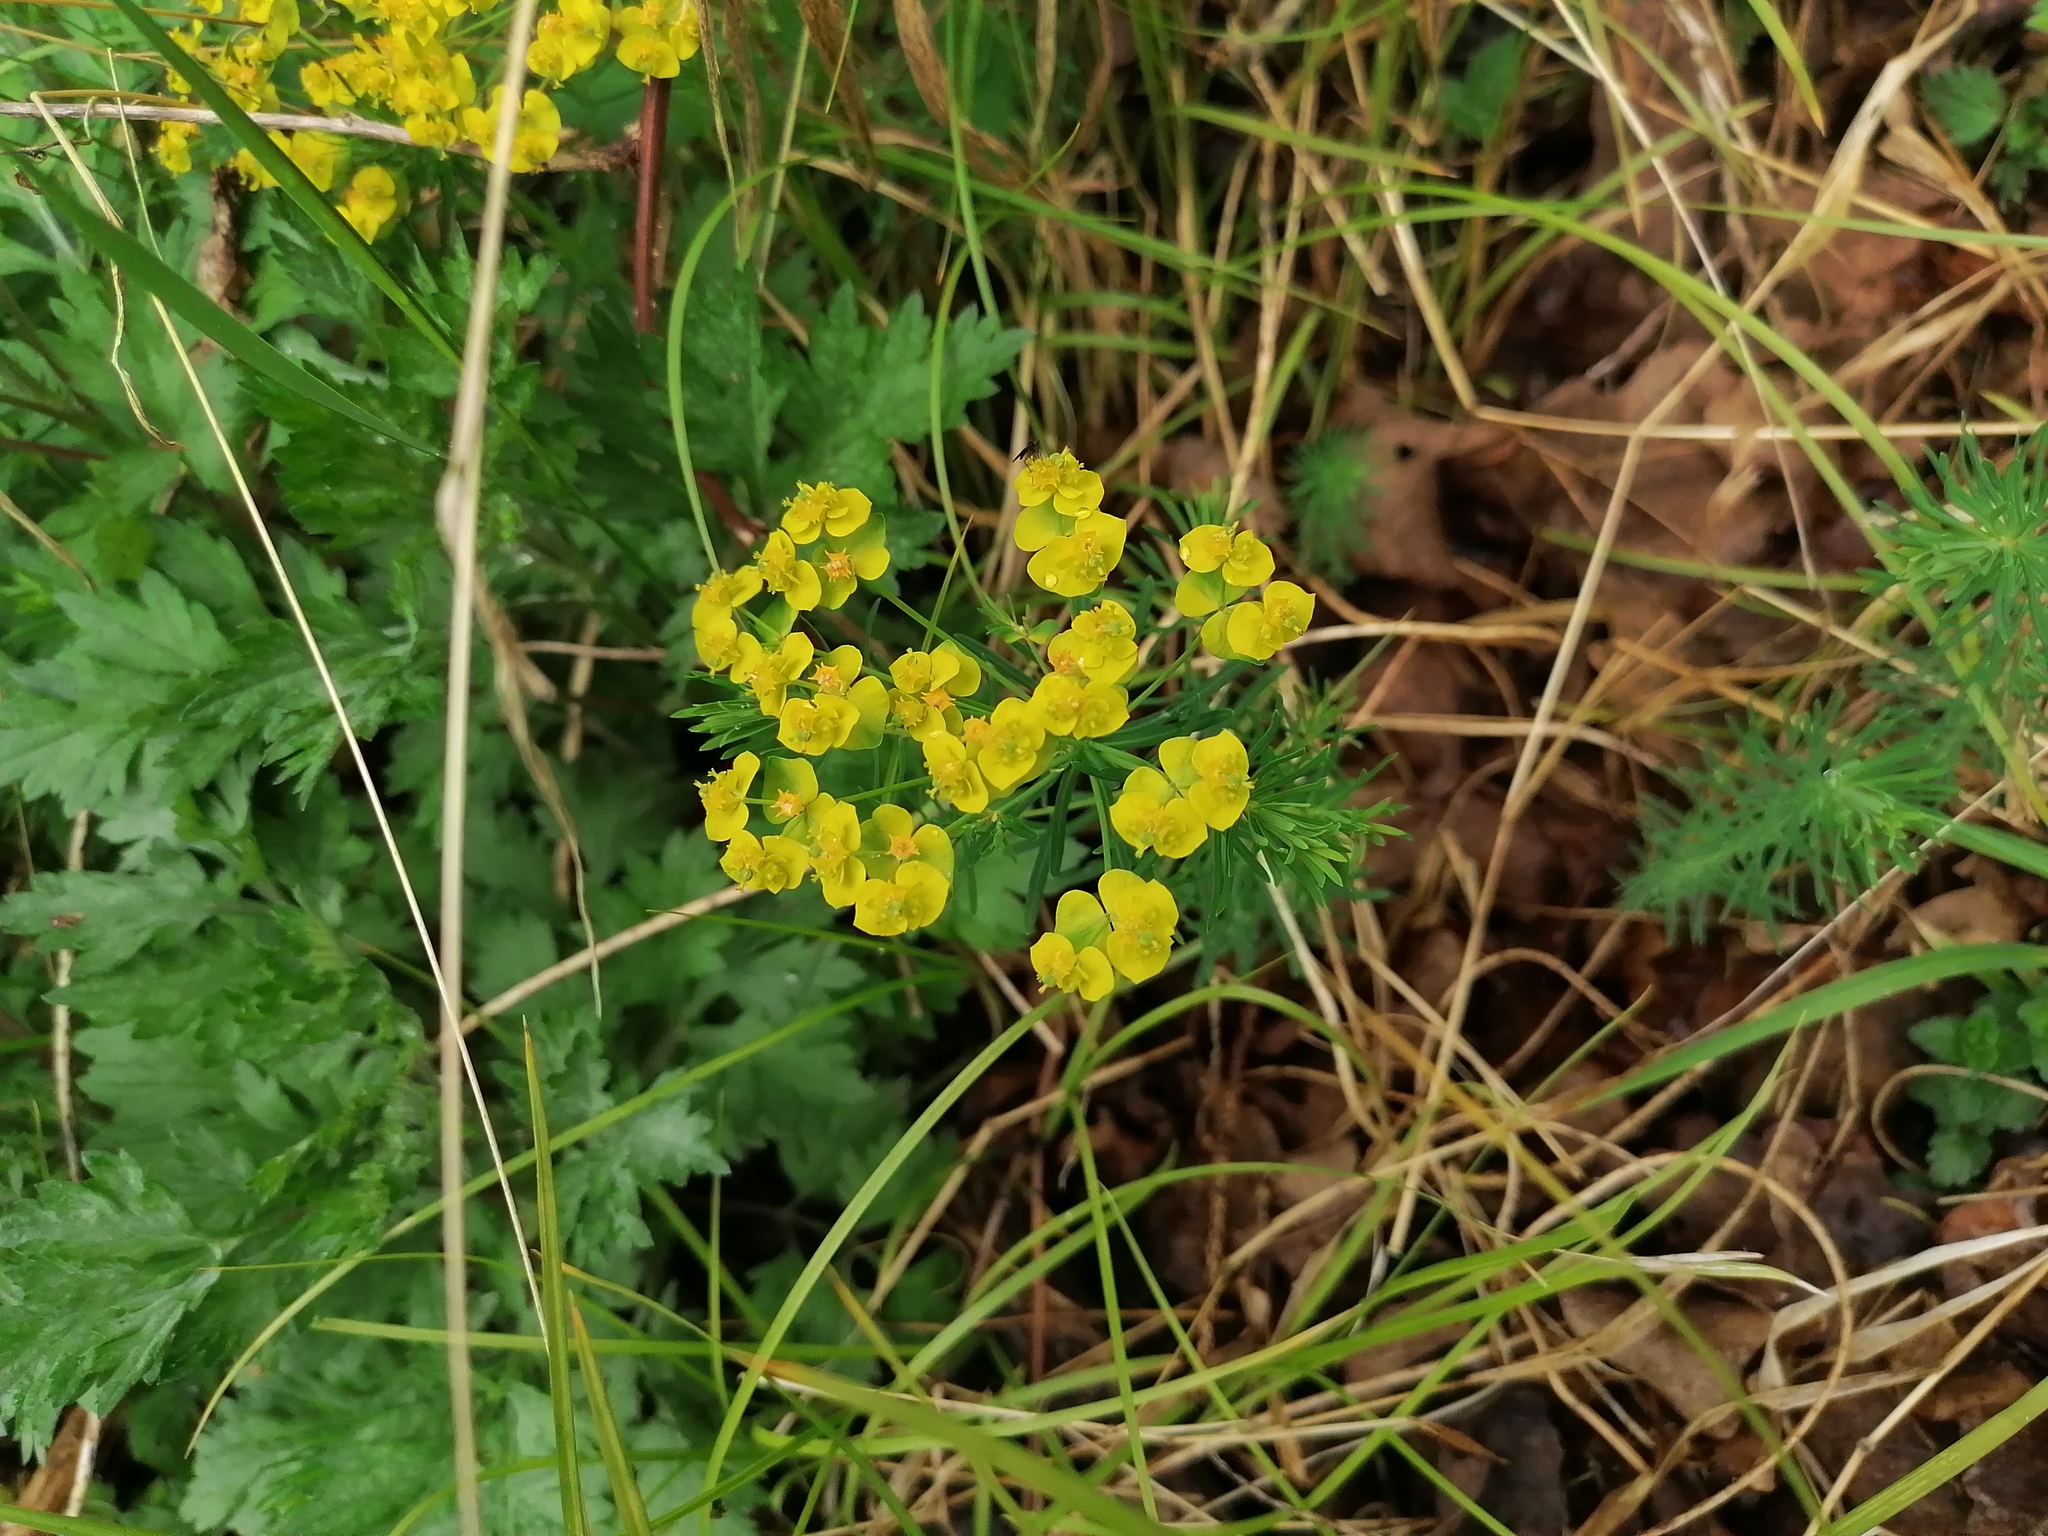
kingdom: Plantae
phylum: Tracheophyta
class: Magnoliopsida
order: Malpighiales
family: Euphorbiaceae
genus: Euphorbia
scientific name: Euphorbia cyparissias
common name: Cypress spurge
